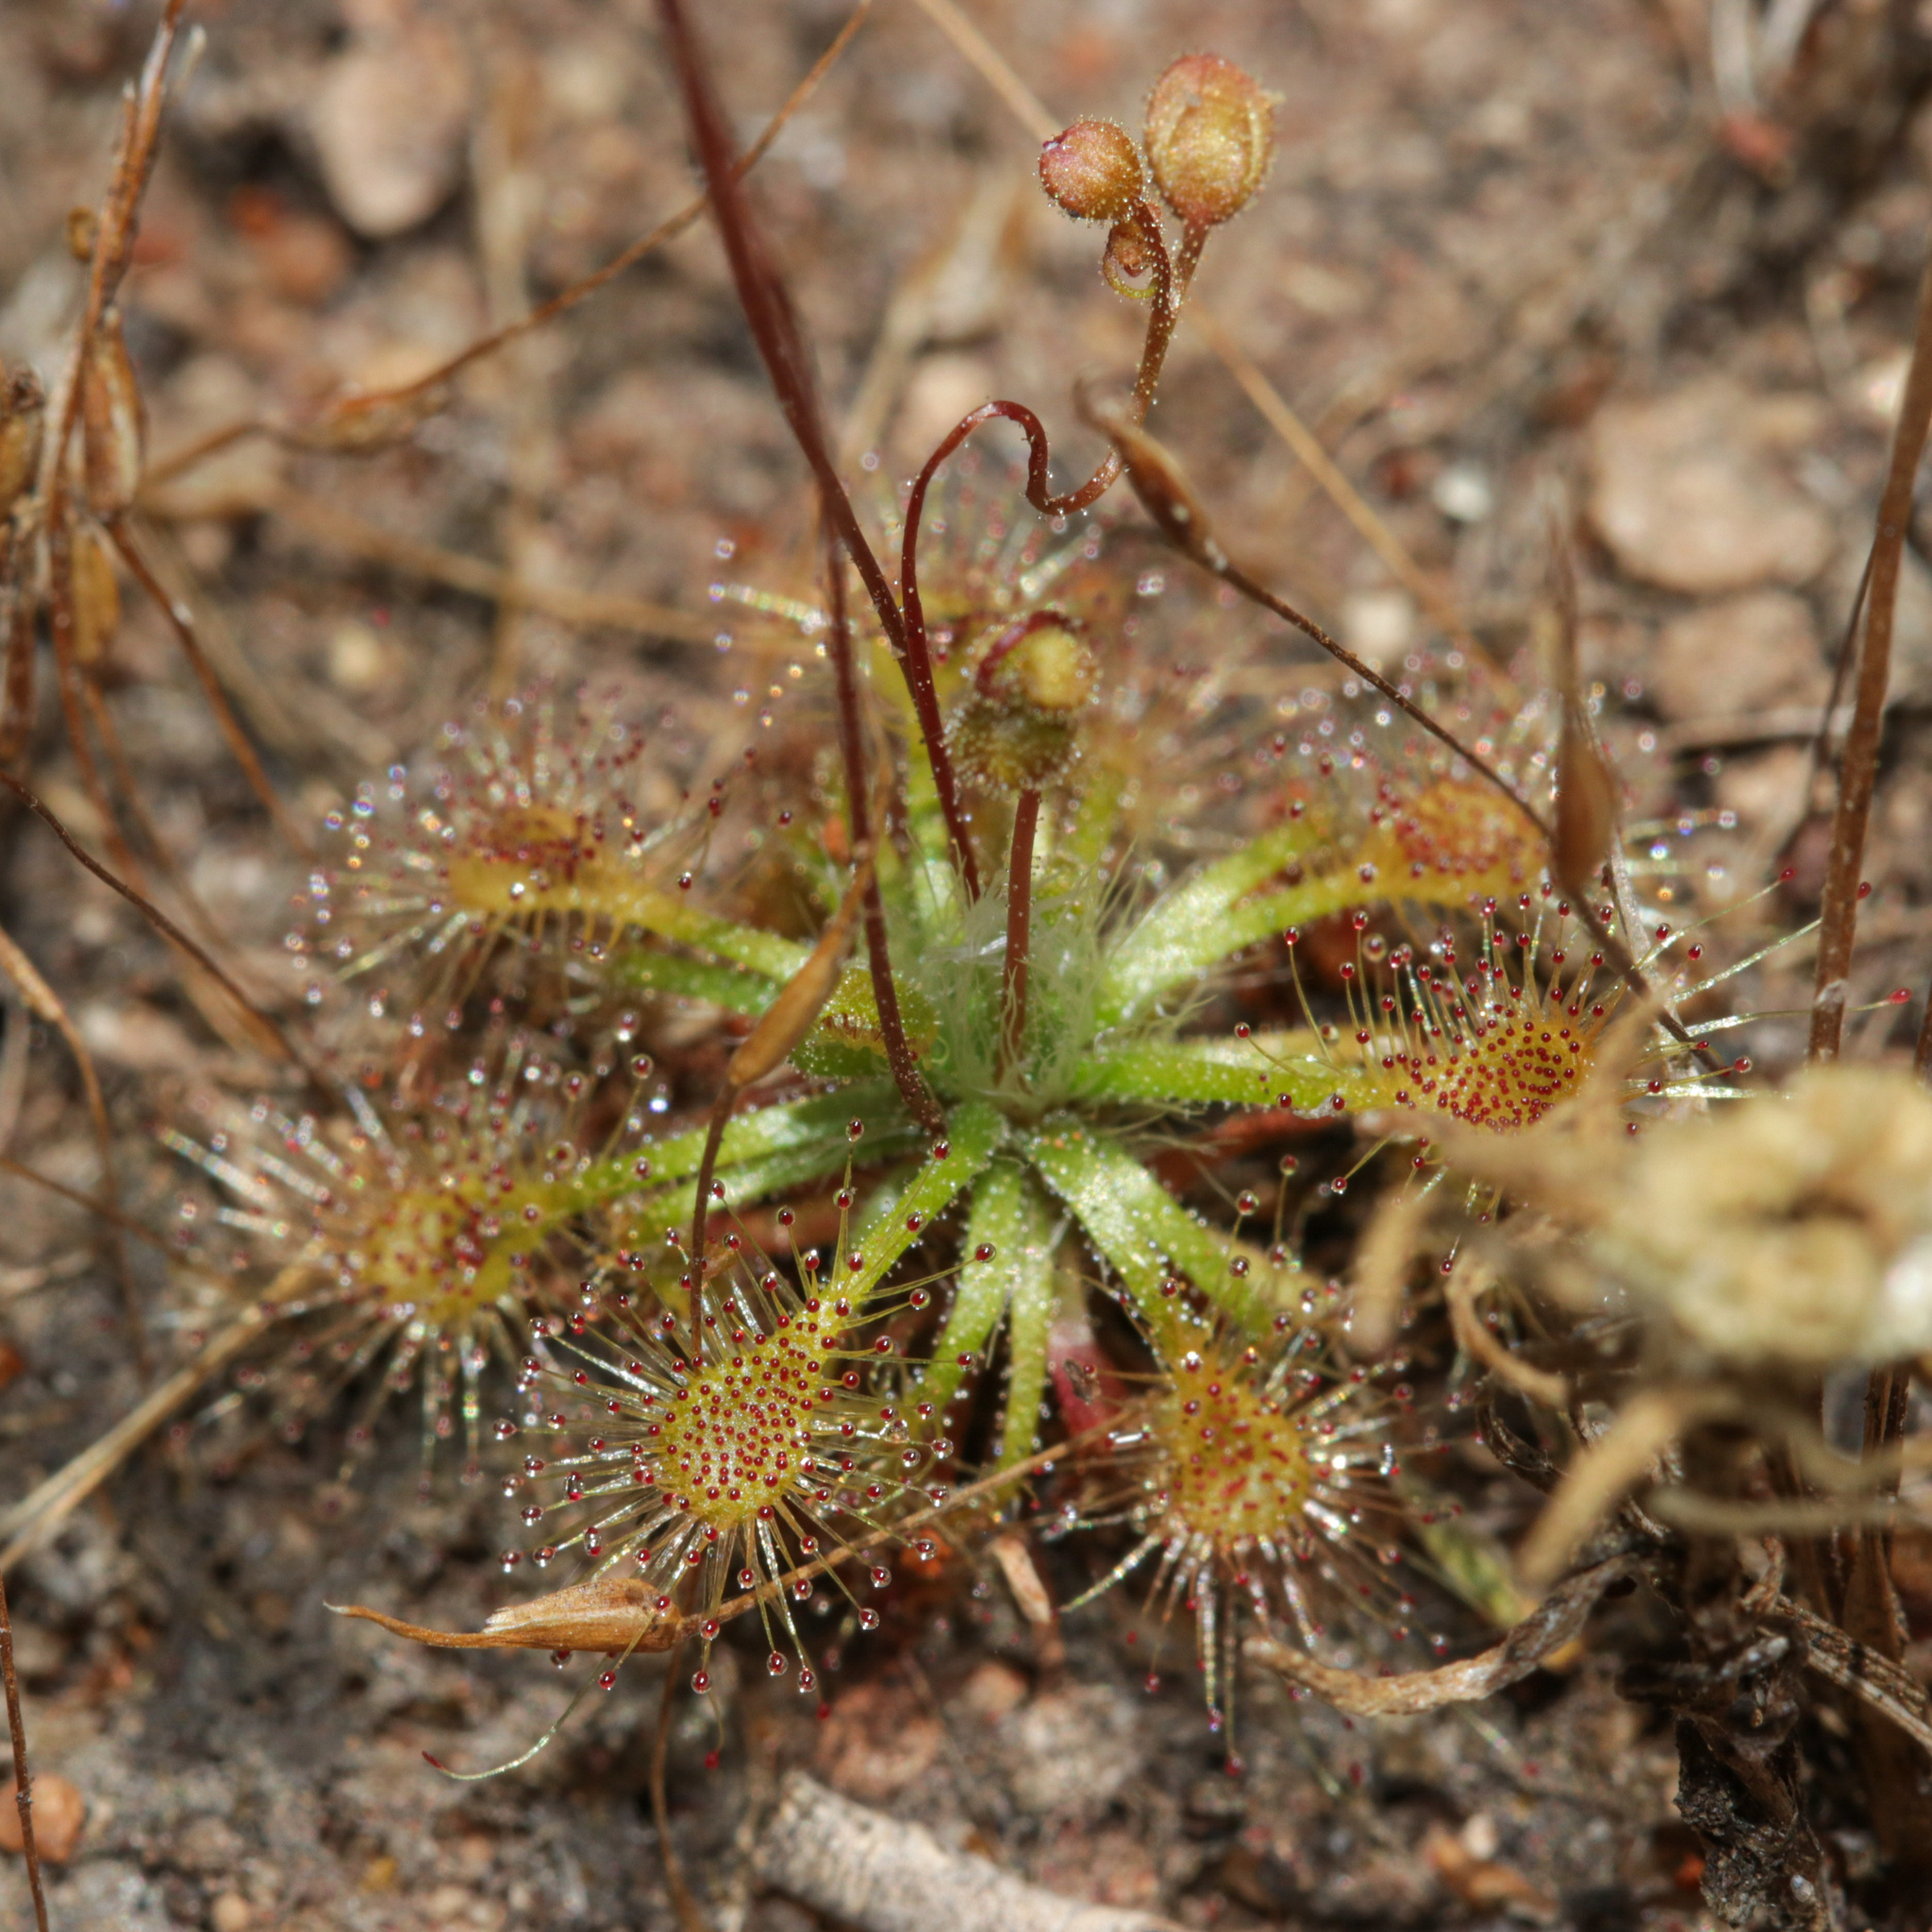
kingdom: Plantae
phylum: Tracheophyta
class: Magnoliopsida
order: Caryophyllales
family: Droseraceae
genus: Drosera
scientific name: Drosera nitidula
